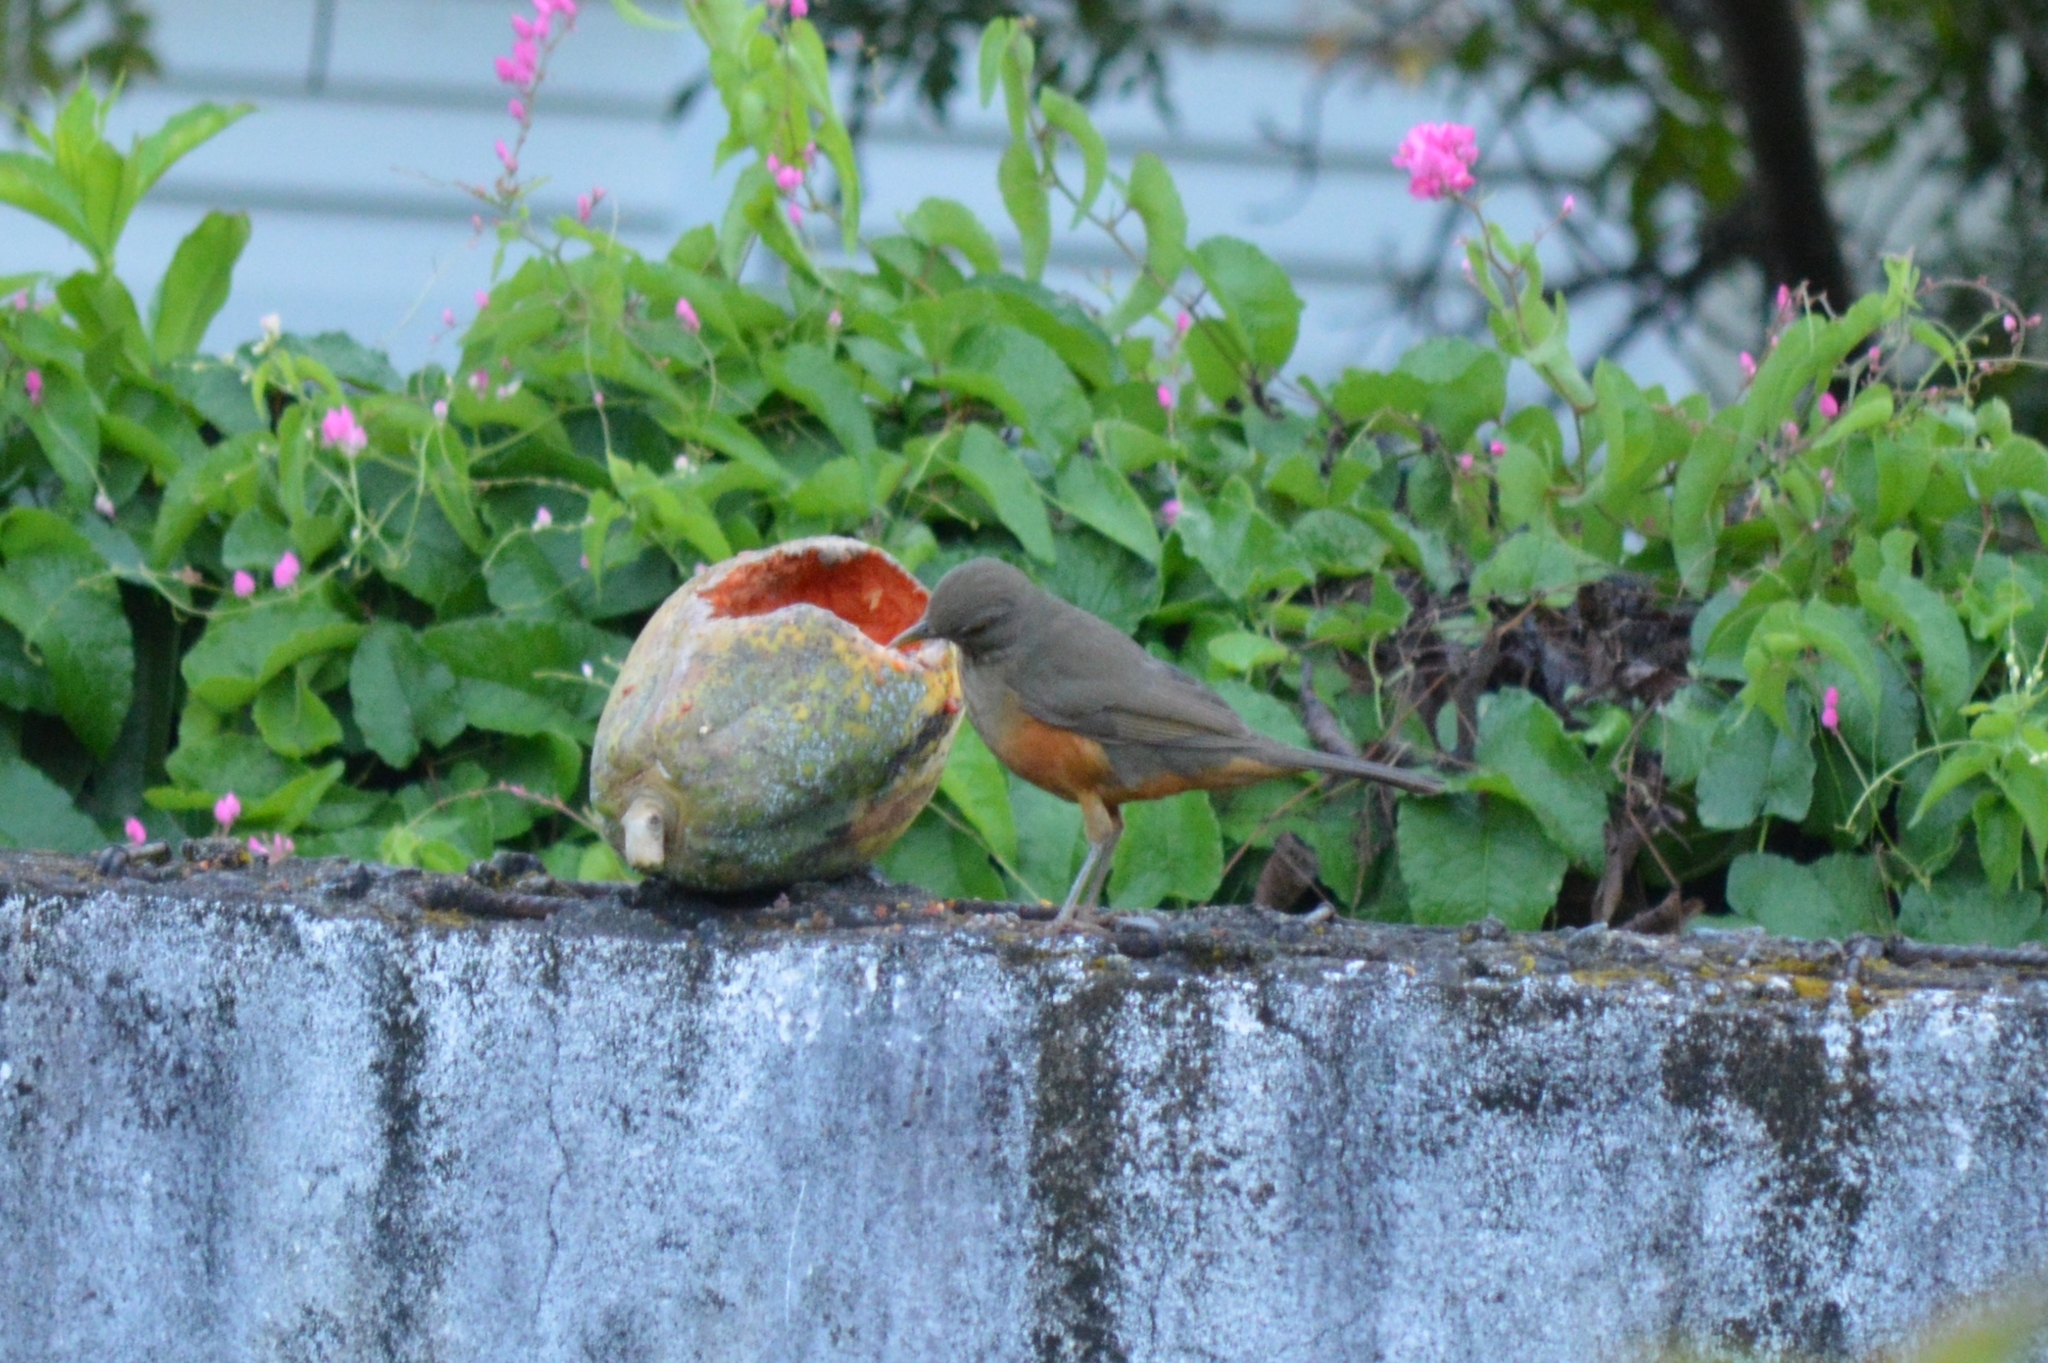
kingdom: Animalia
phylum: Chordata
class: Aves
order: Passeriformes
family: Turdidae
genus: Turdus
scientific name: Turdus rufiventris
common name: Rufous-bellied thrush
